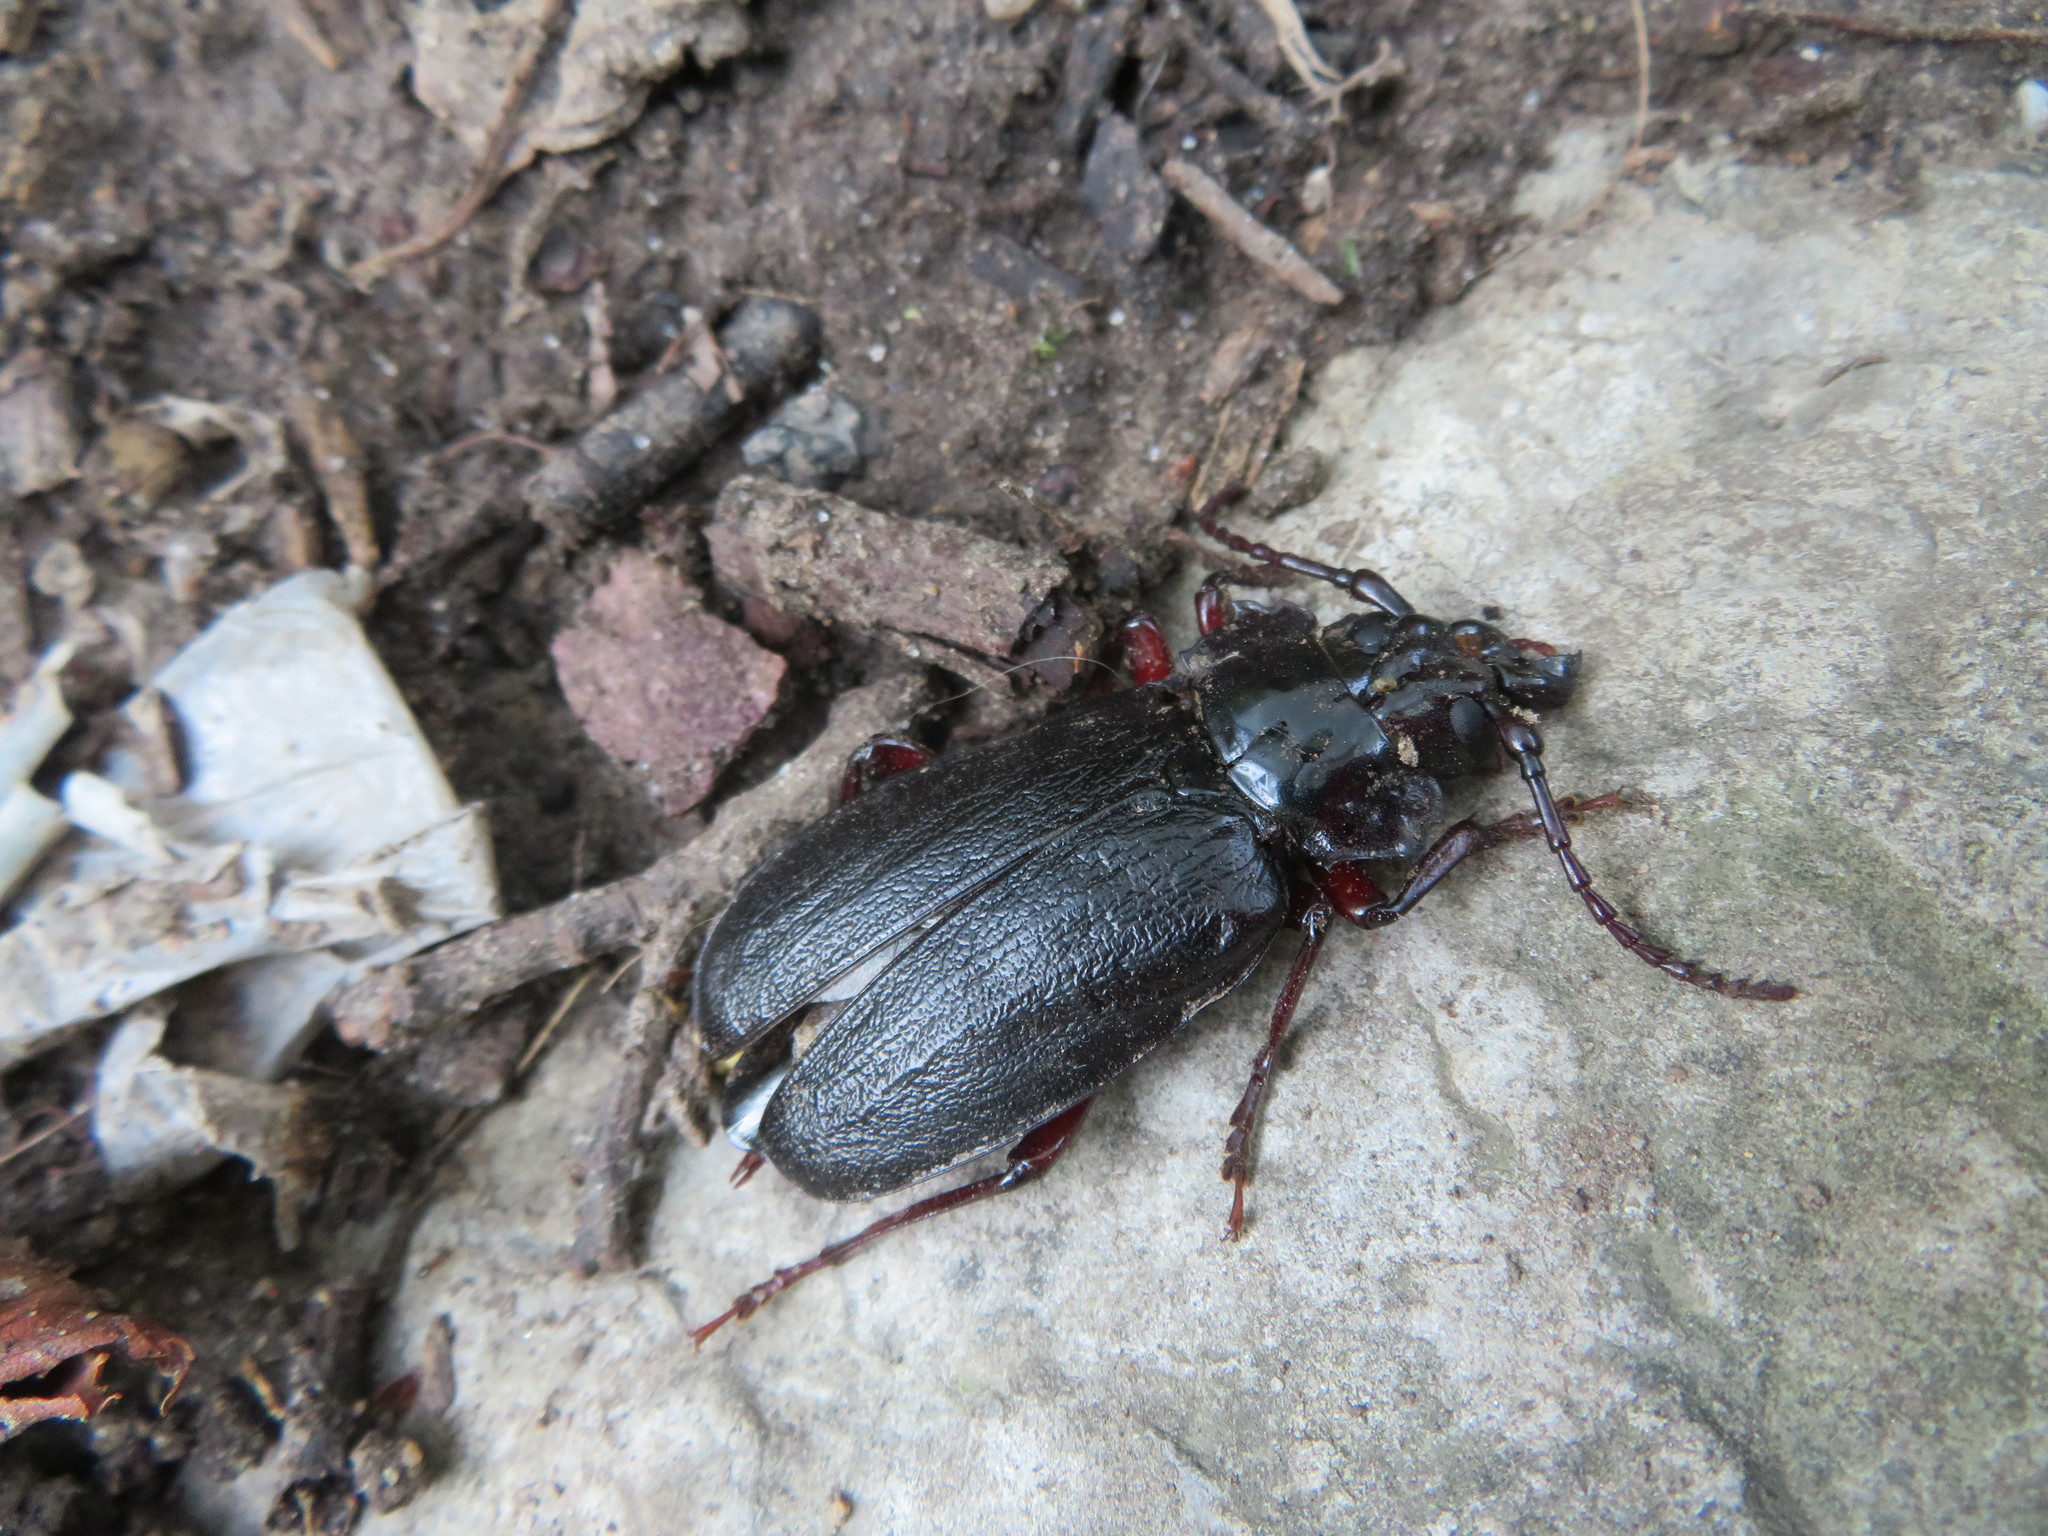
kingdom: Animalia
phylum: Arthropoda
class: Insecta
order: Coleoptera
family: Cerambycidae
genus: Prionus
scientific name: Prionus laticollis
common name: Broad necked prionus
